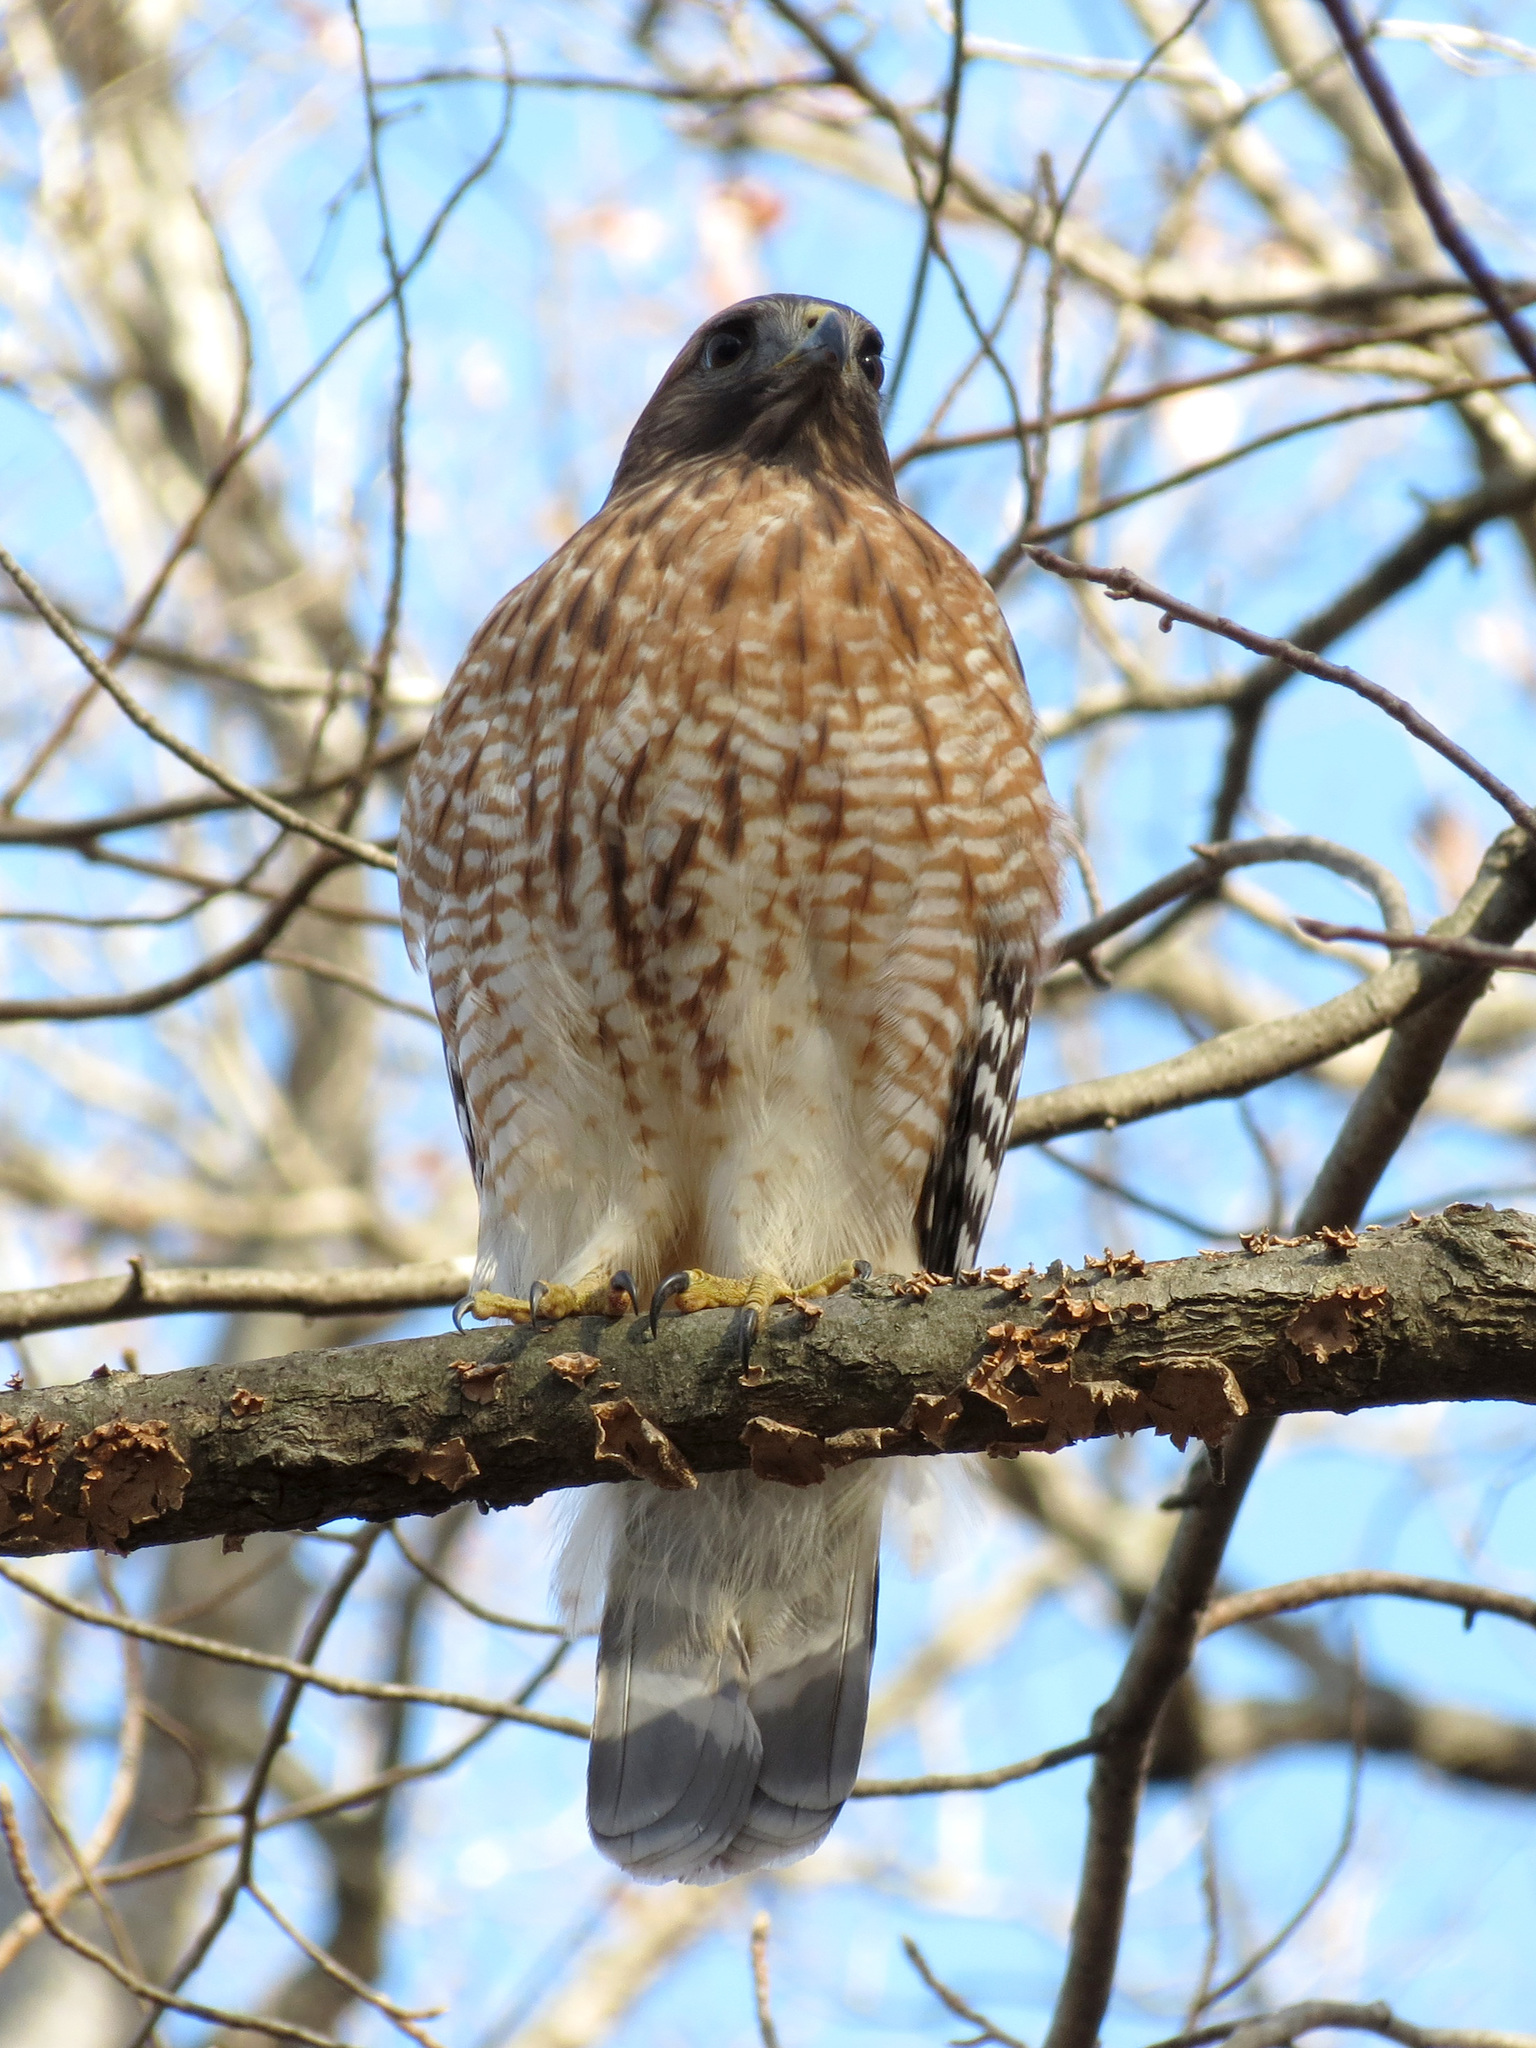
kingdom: Animalia
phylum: Chordata
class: Aves
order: Accipitriformes
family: Accipitridae
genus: Buteo
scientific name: Buteo lineatus
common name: Red-shouldered hawk
